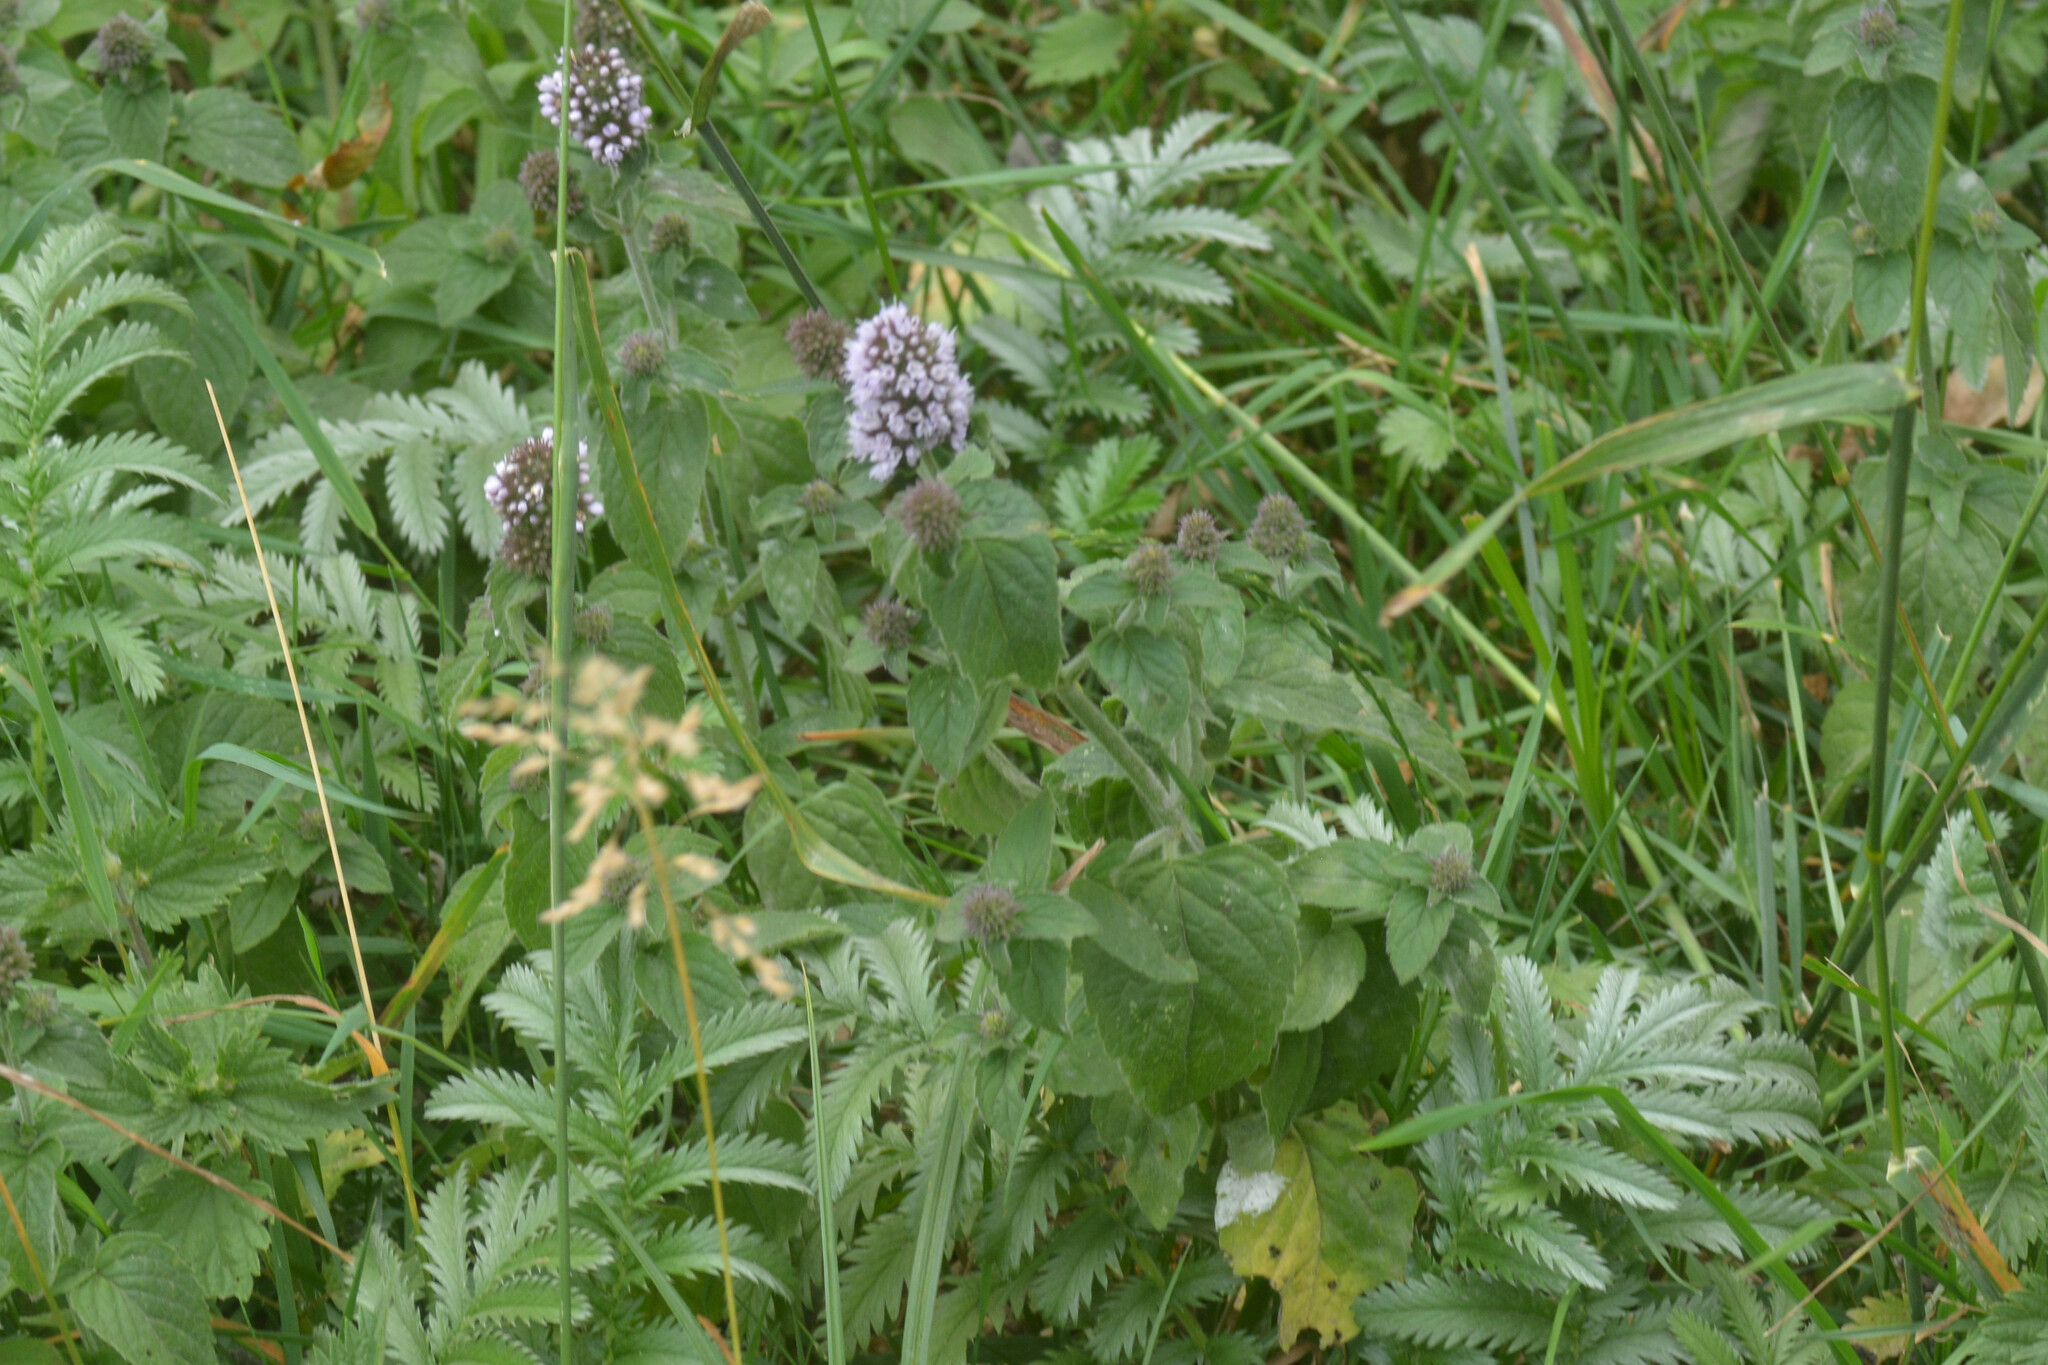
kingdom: Plantae
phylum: Tracheophyta
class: Magnoliopsida
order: Lamiales
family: Lamiaceae
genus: Mentha
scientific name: Mentha aquatica
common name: Water mint
